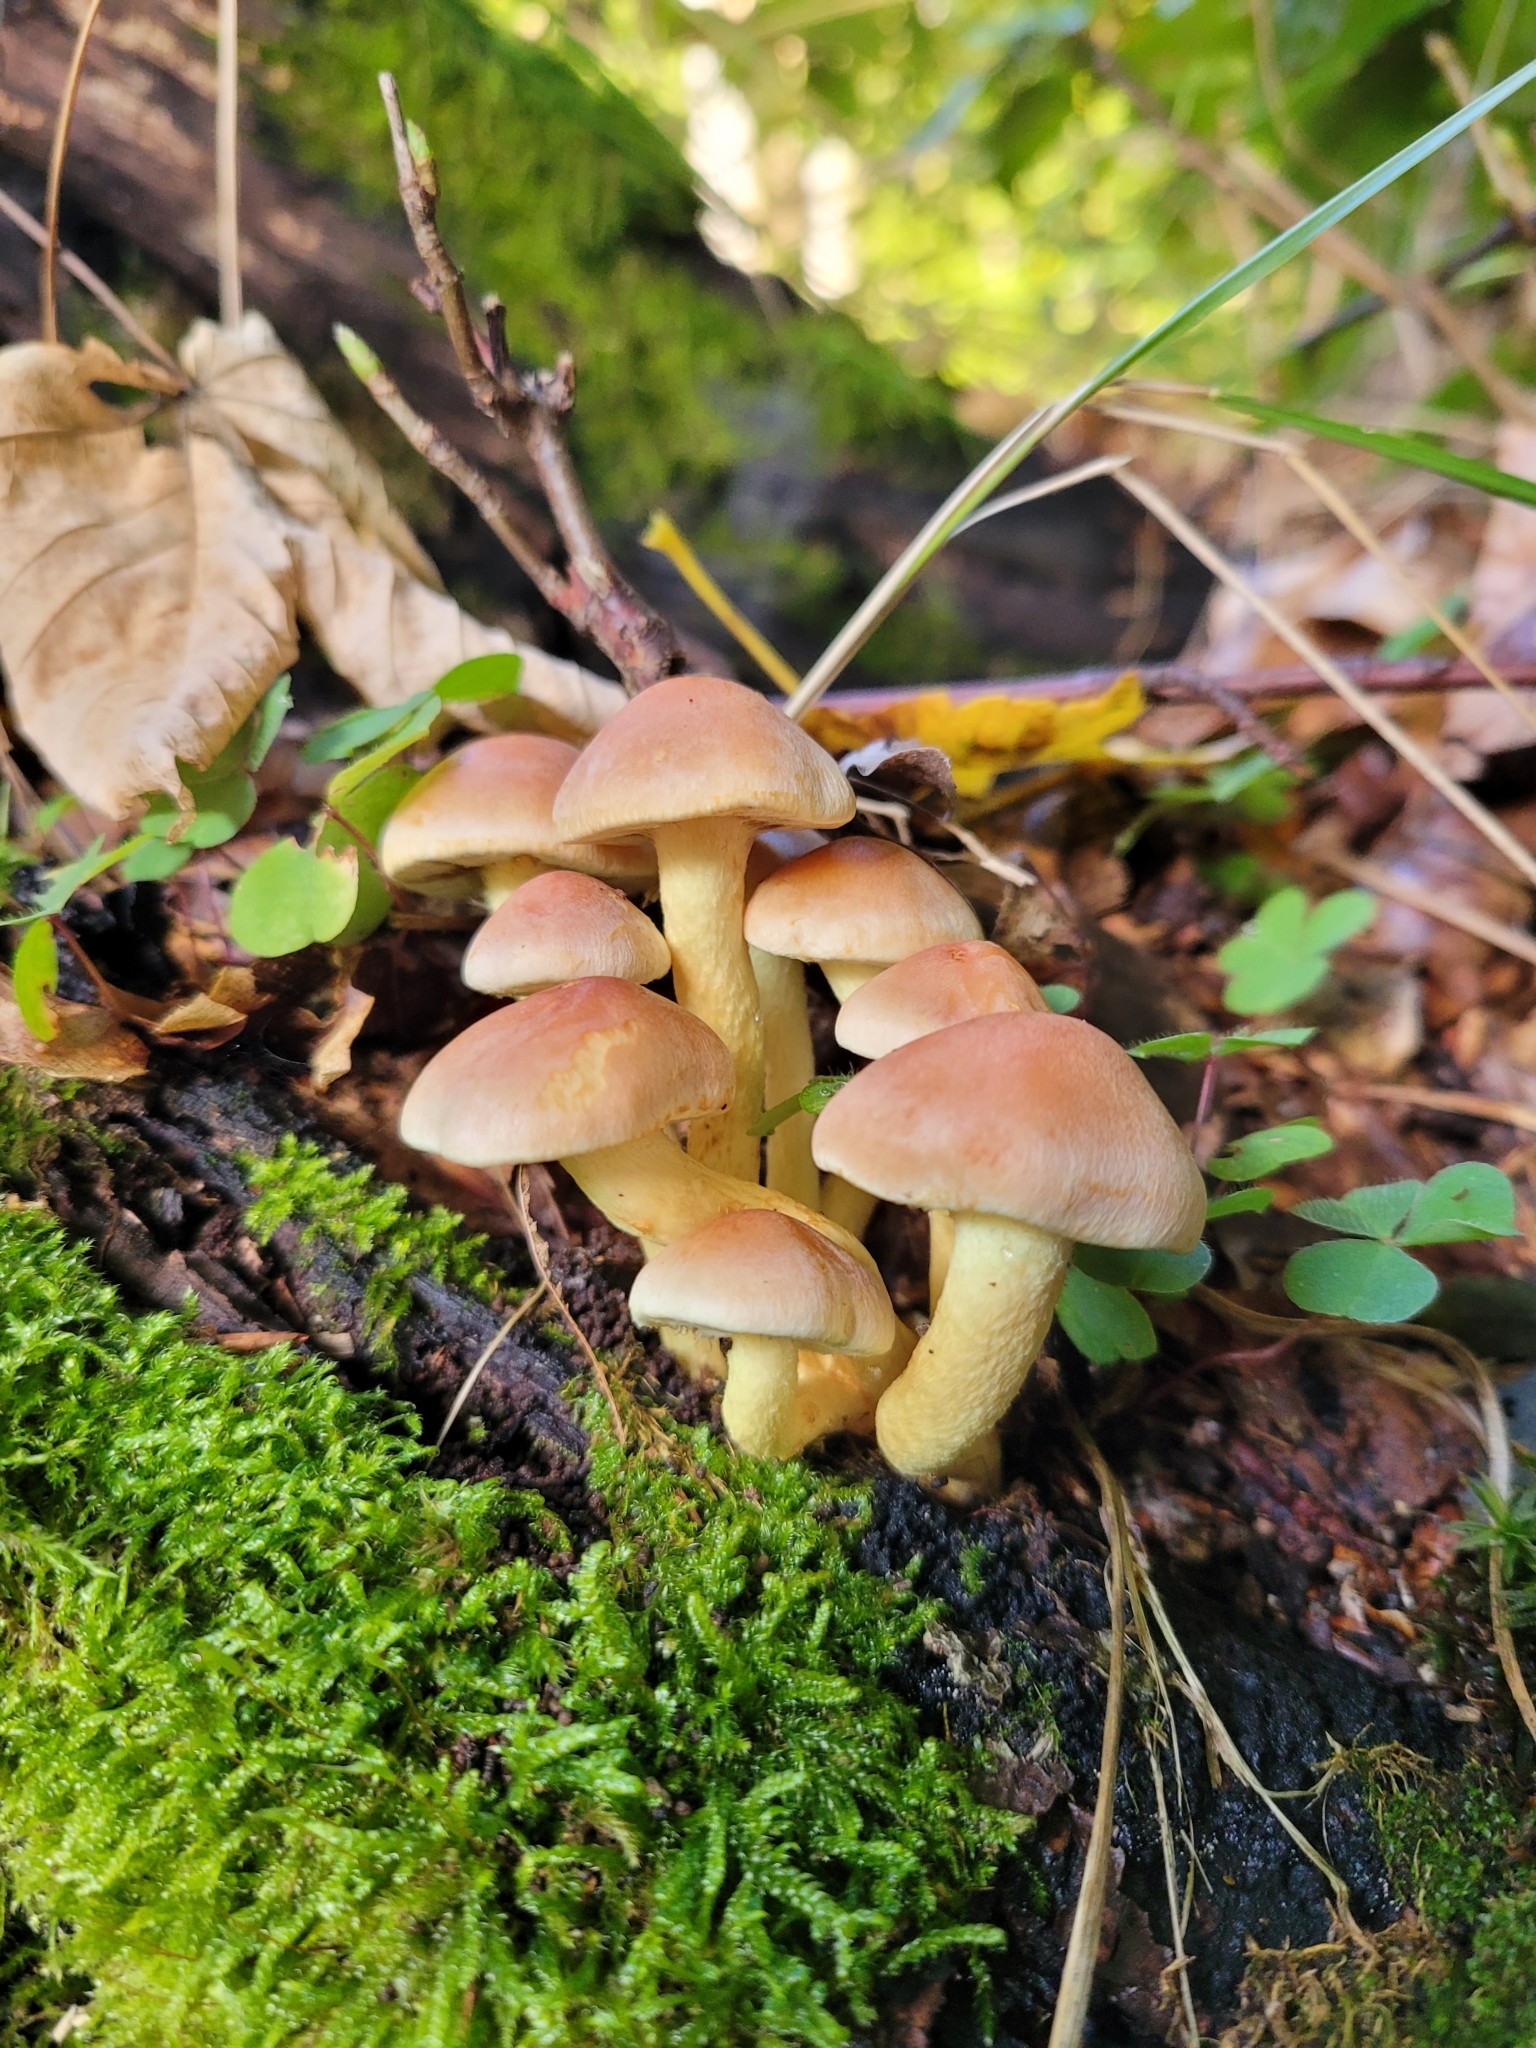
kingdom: Fungi
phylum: Basidiomycota
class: Agaricomycetes
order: Agaricales
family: Strophariaceae
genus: Hypholoma
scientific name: Hypholoma fasciculare
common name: Sulphur tuft
